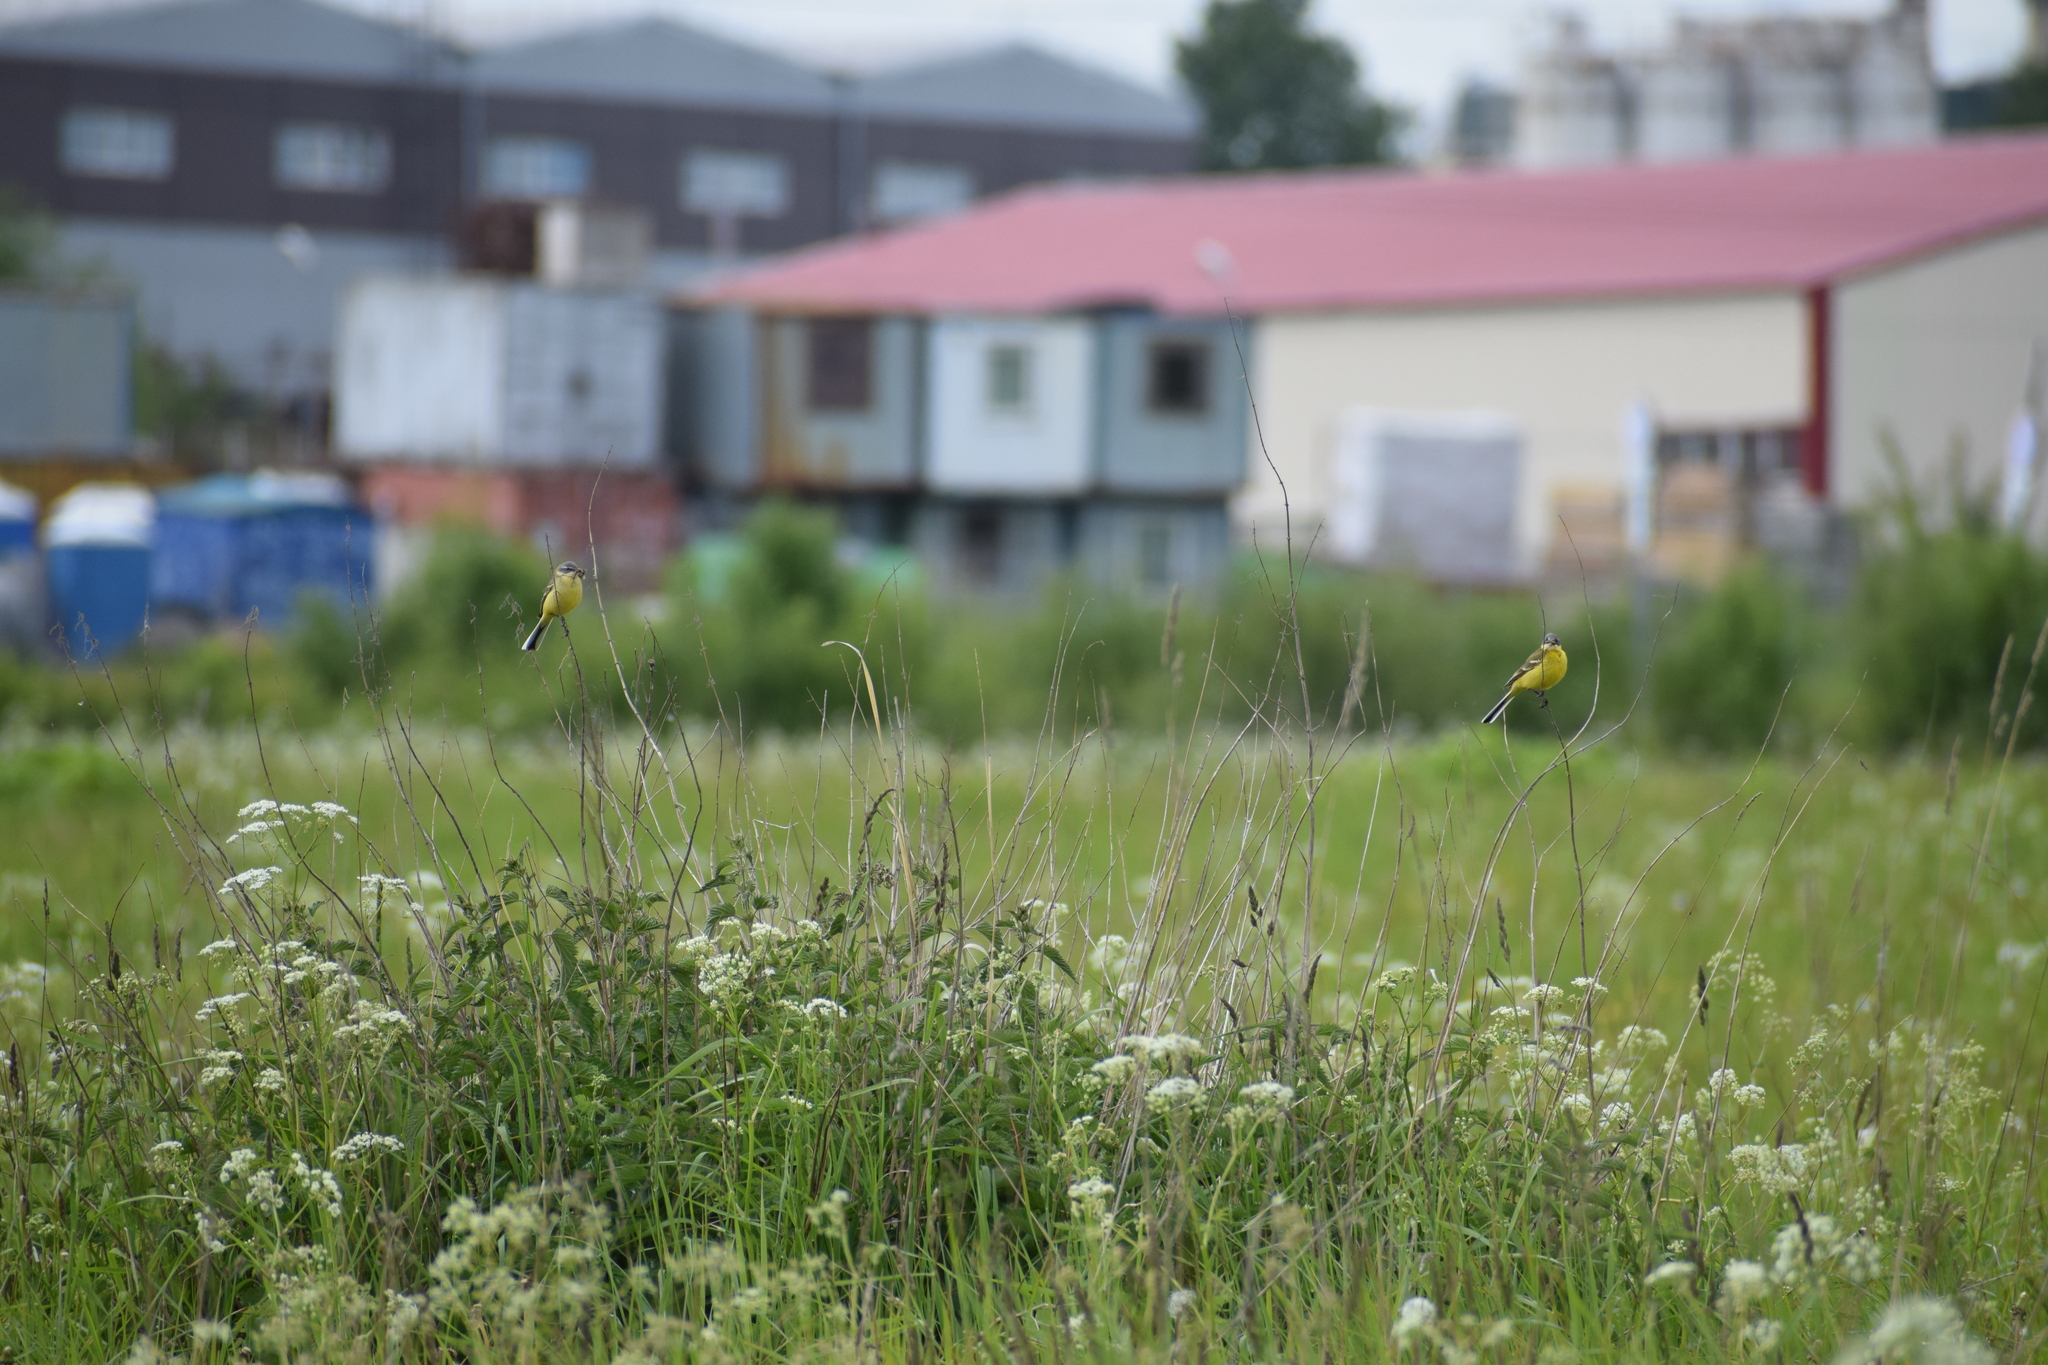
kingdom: Animalia
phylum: Chordata
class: Aves
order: Passeriformes
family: Motacillidae
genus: Motacilla
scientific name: Motacilla flava
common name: Western yellow wagtail
